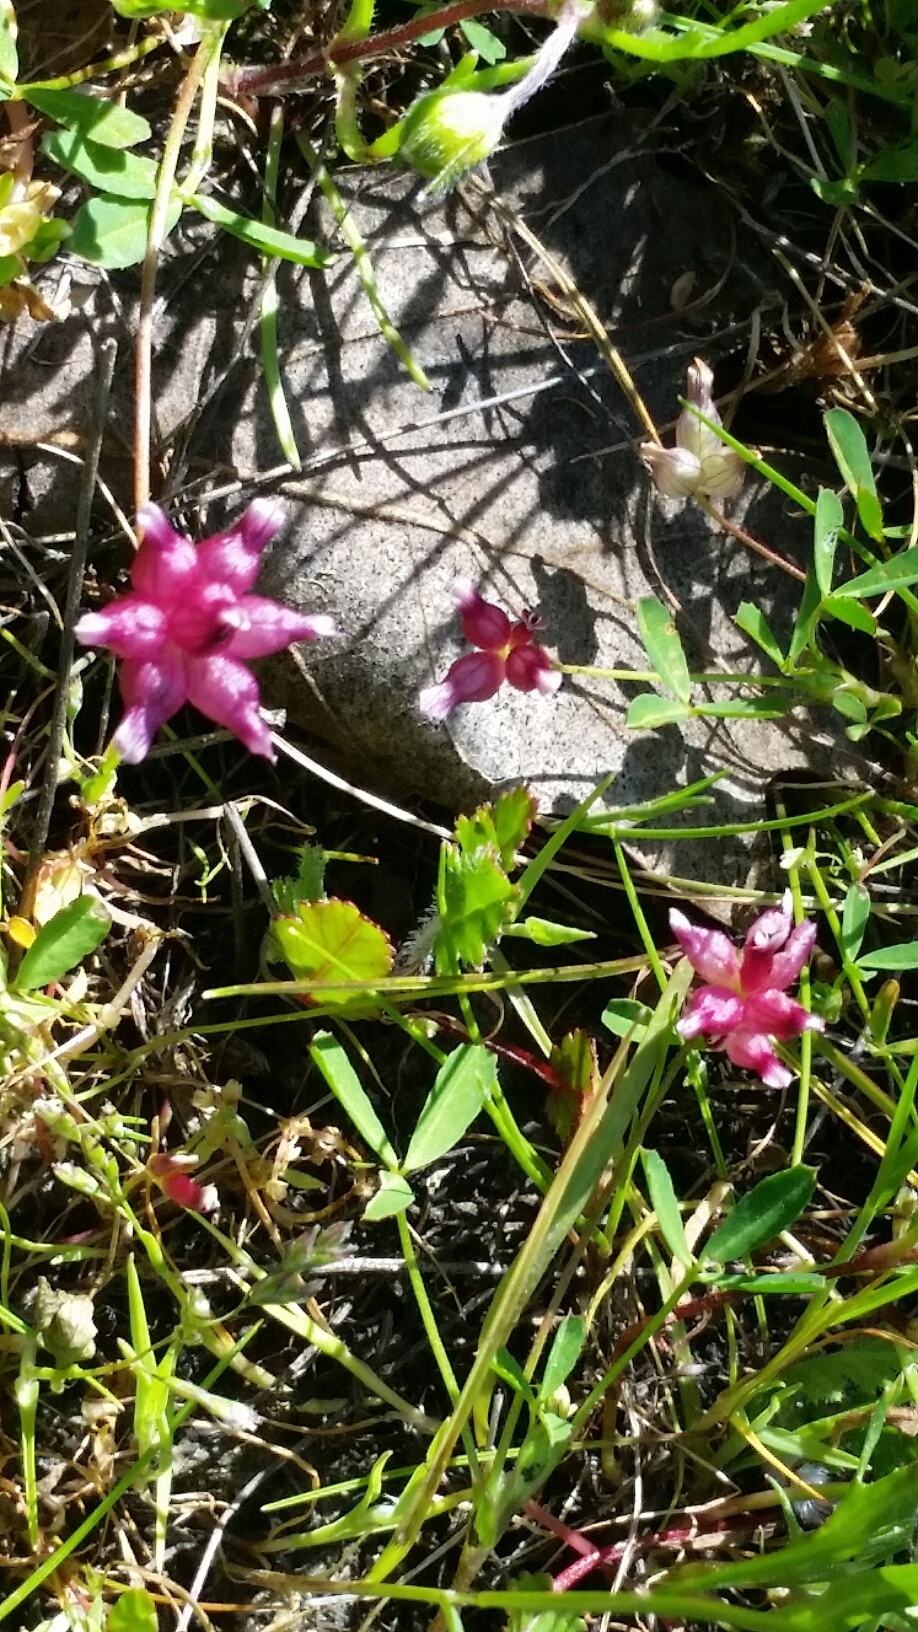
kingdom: Plantae
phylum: Tracheophyta
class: Magnoliopsida
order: Fabales
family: Fabaceae
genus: Trifolium
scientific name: Trifolium depauperatum
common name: Poverty clover
